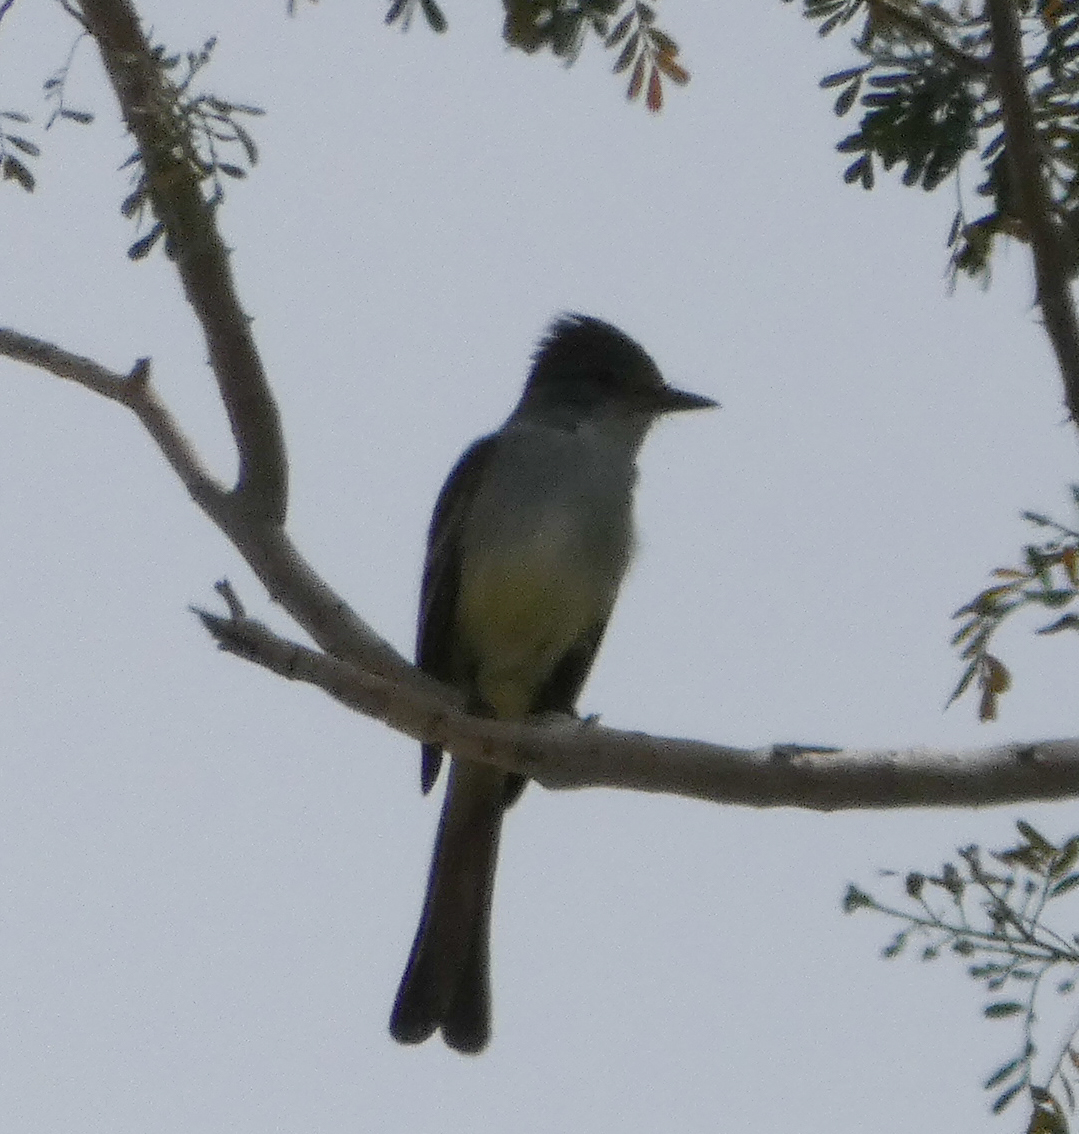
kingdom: Animalia
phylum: Chordata
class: Aves
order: Passeriformes
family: Tyrannidae
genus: Myiarchus
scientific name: Myiarchus cinerascens
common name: Ash-throated flycatcher
